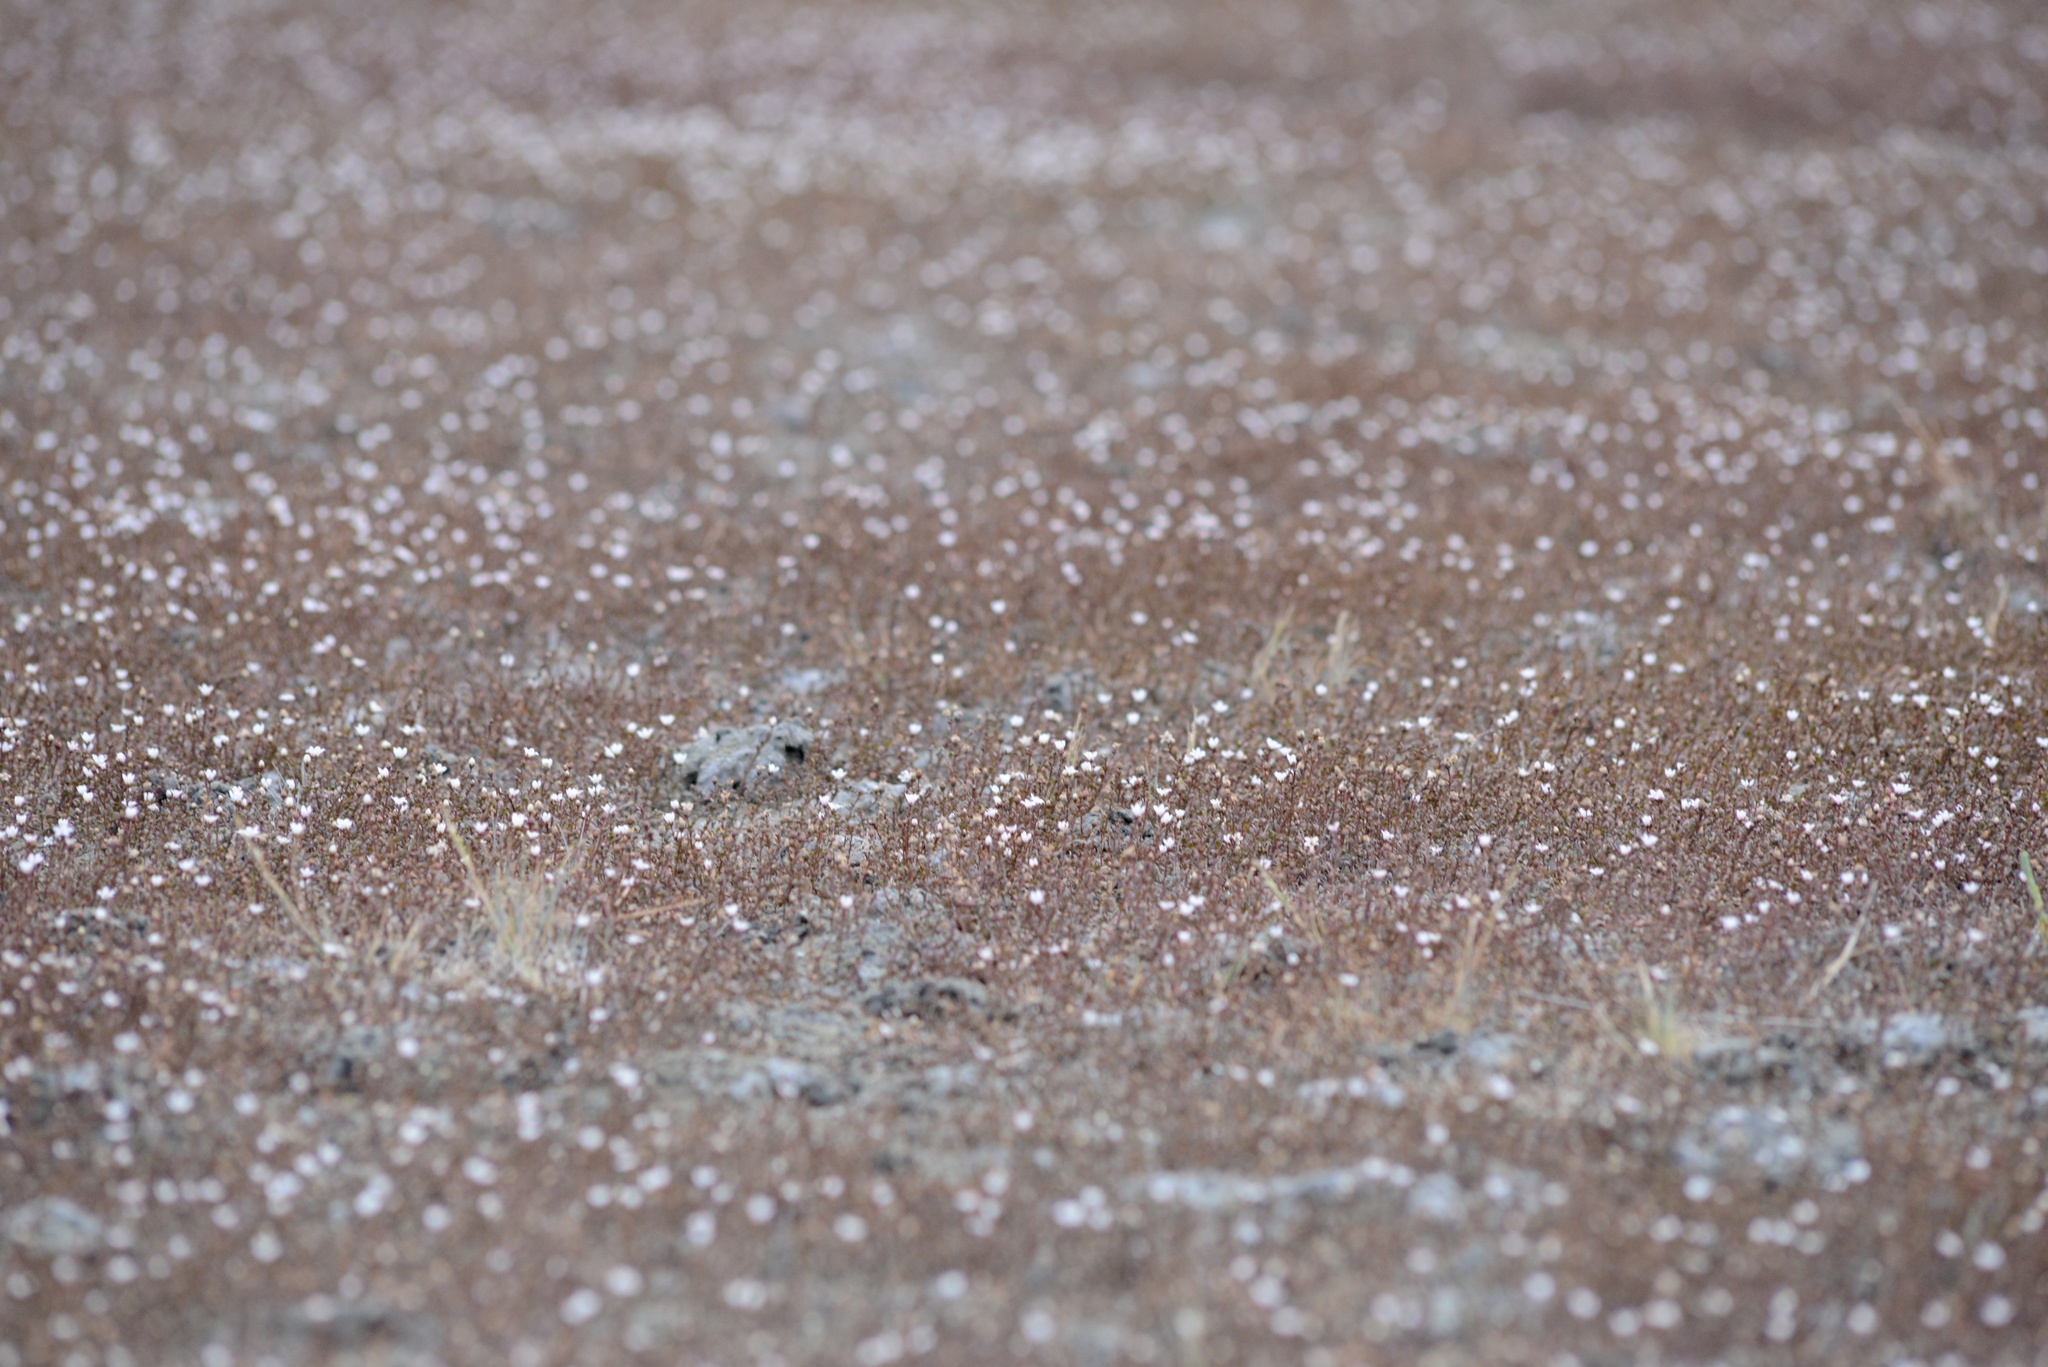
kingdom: Plantae
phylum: Tracheophyta
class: Magnoliopsida
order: Ericales
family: Primulaceae
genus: Samolus
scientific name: Samolus repens
